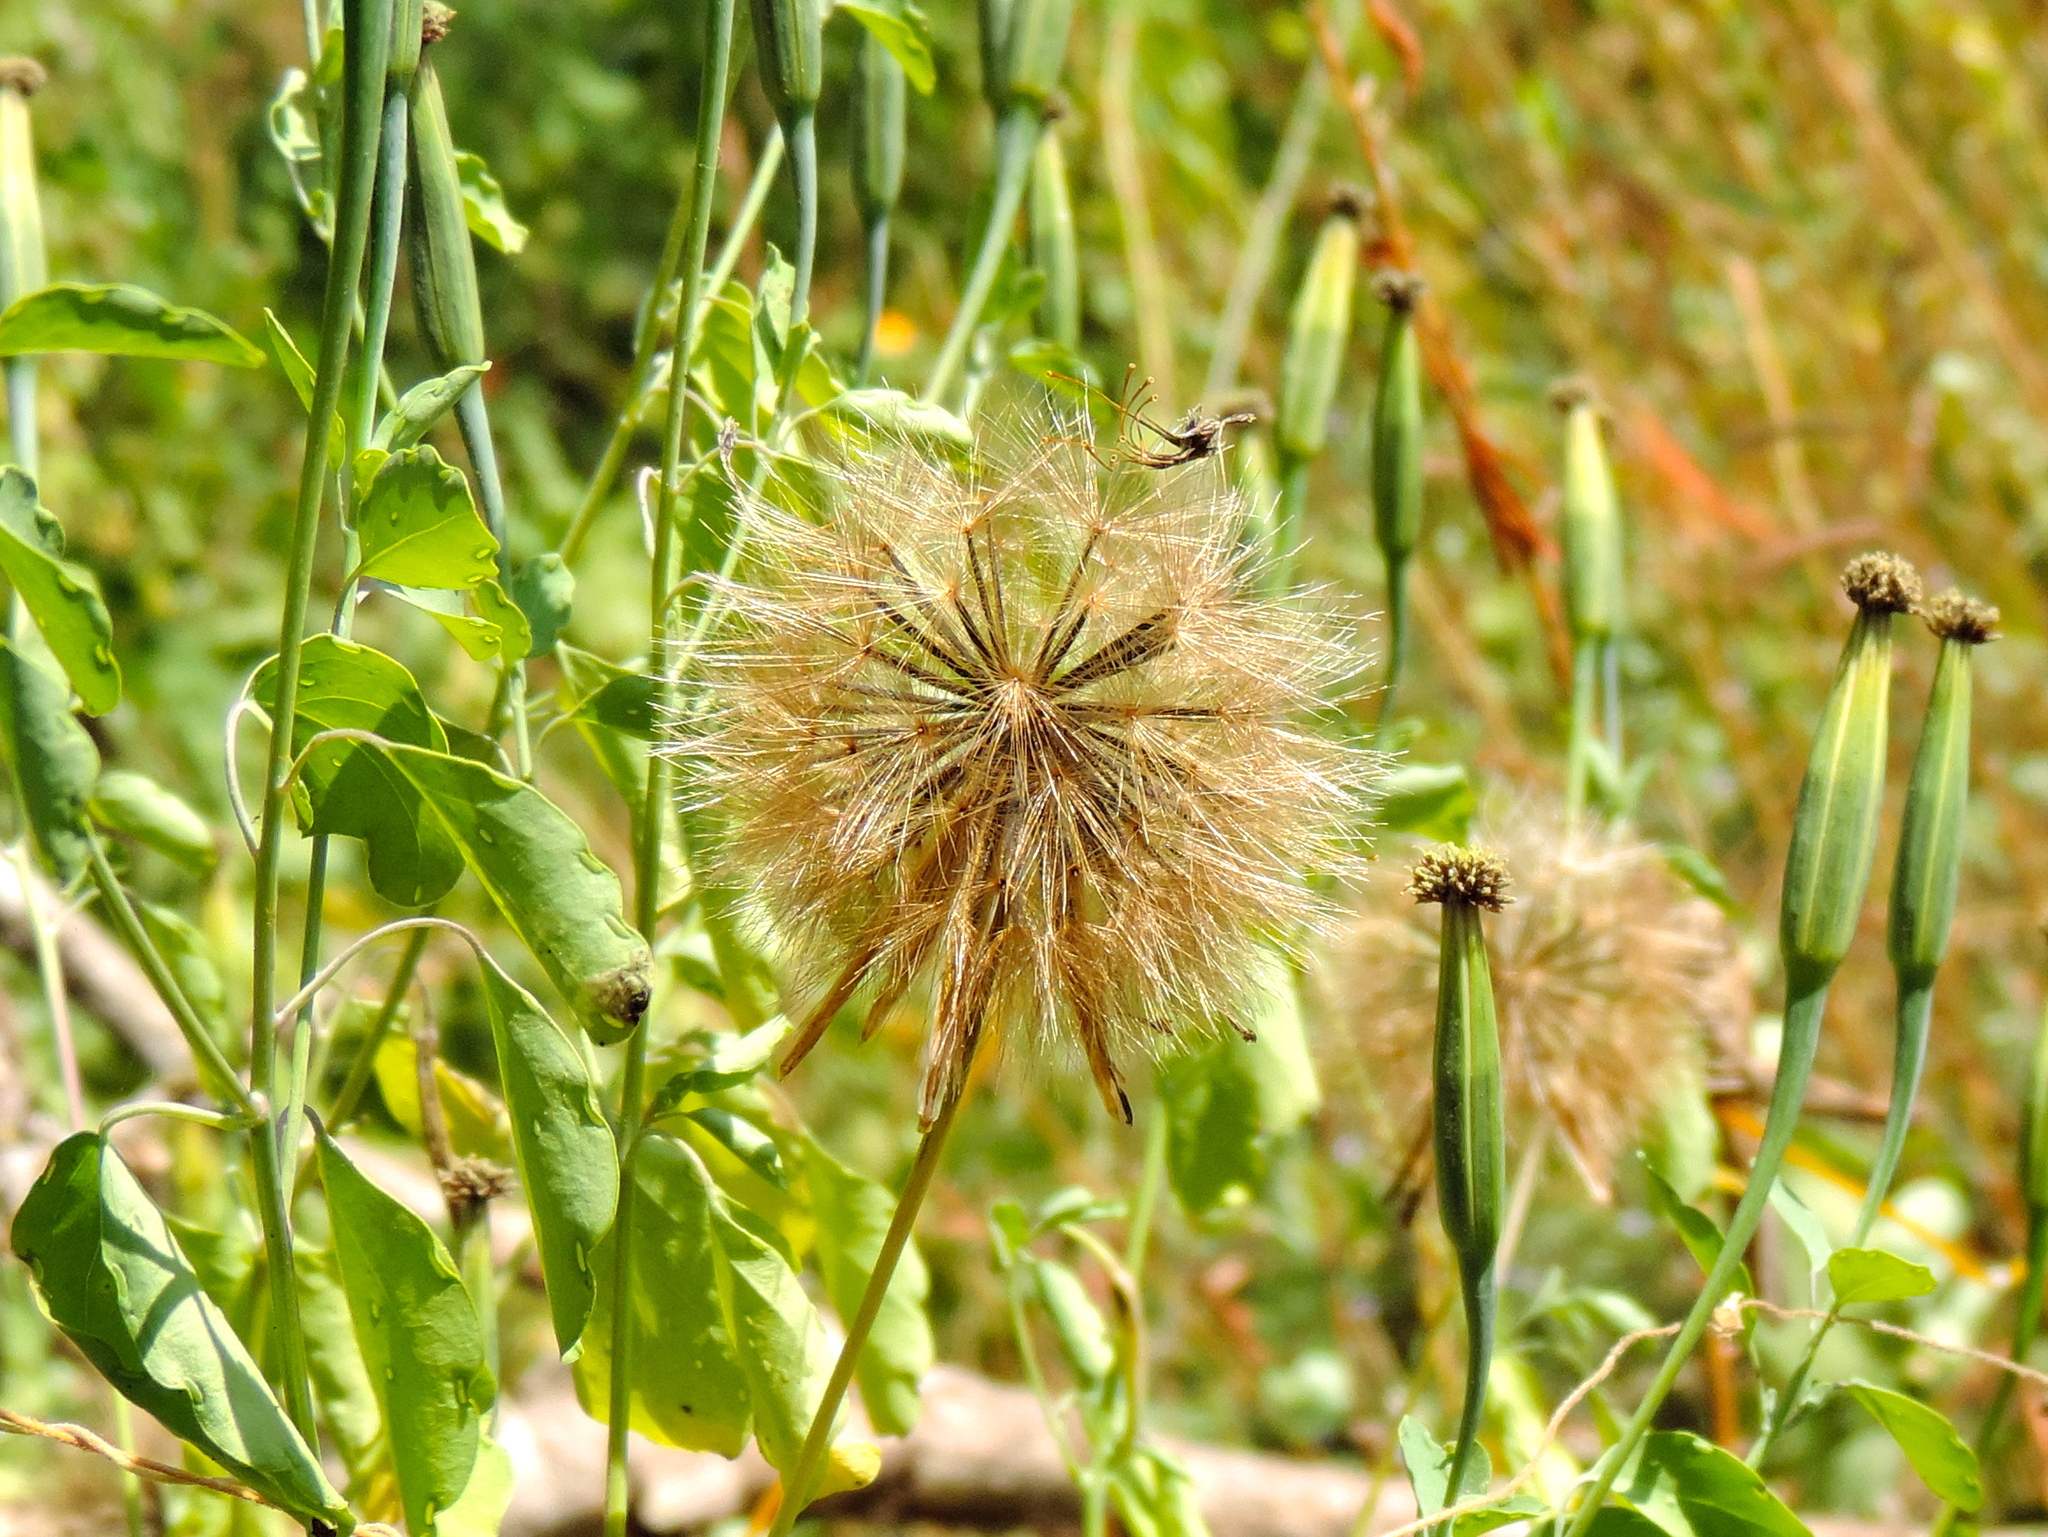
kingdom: Plantae
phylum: Tracheophyta
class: Magnoliopsida
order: Asterales
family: Asteraceae
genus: Porophyllum
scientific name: Porophyllum ruderale
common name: Yerba porosa
